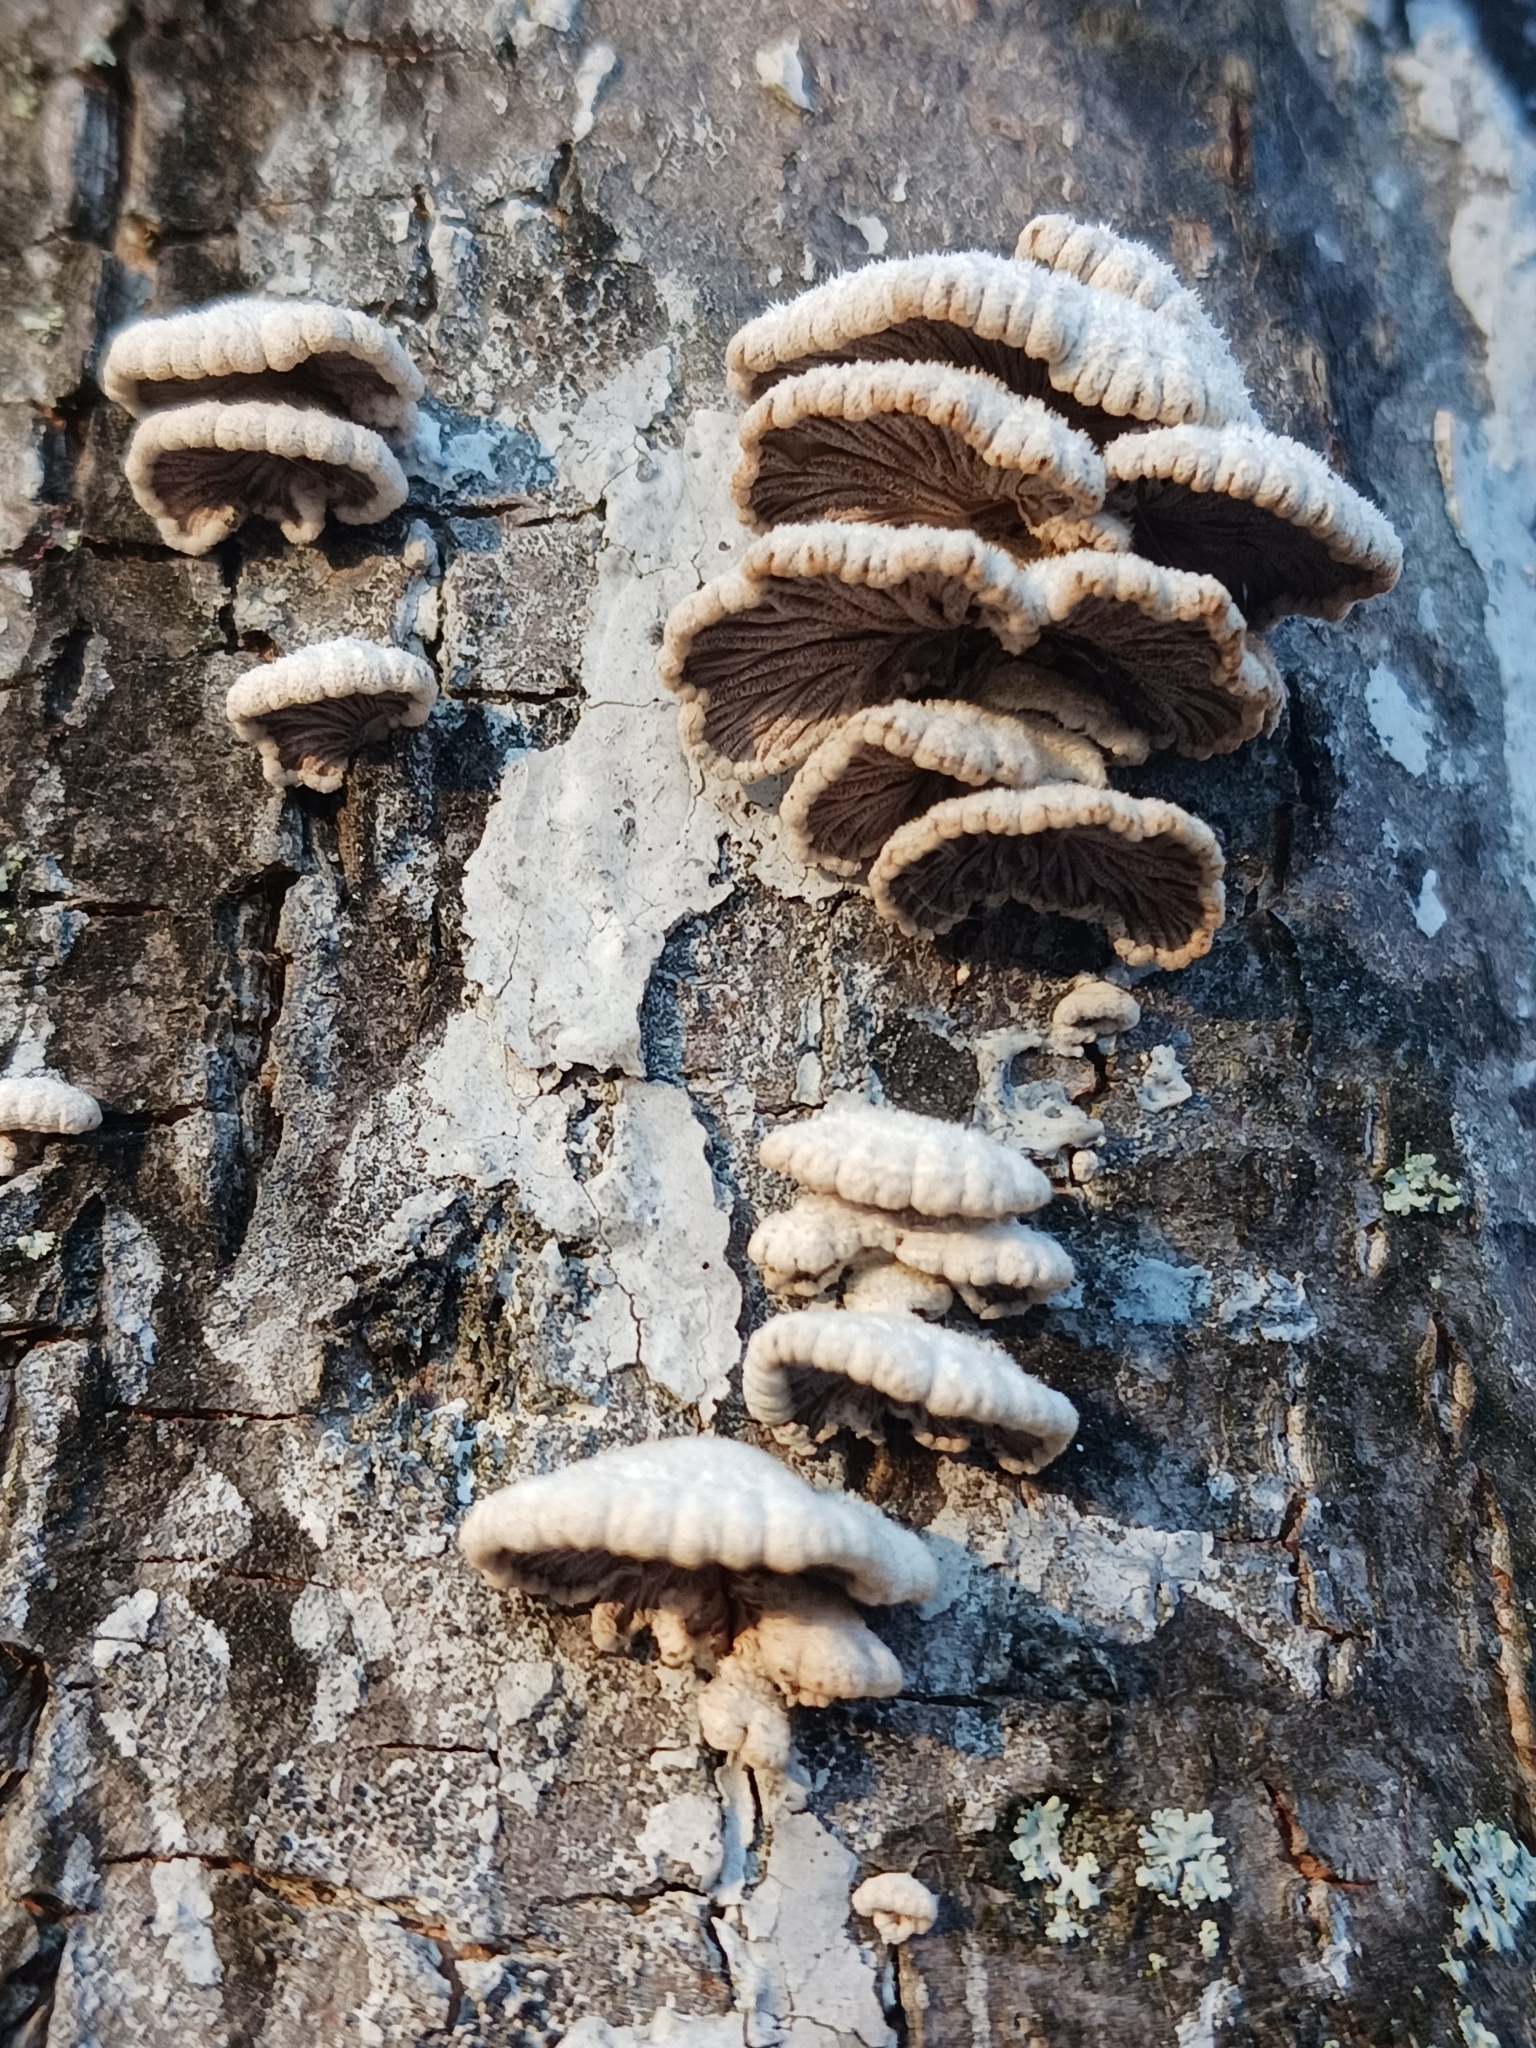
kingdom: Fungi
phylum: Basidiomycota
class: Agaricomycetes
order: Agaricales
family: Schizophyllaceae
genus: Schizophyllum
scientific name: Schizophyllum commune
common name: Common porecrust
